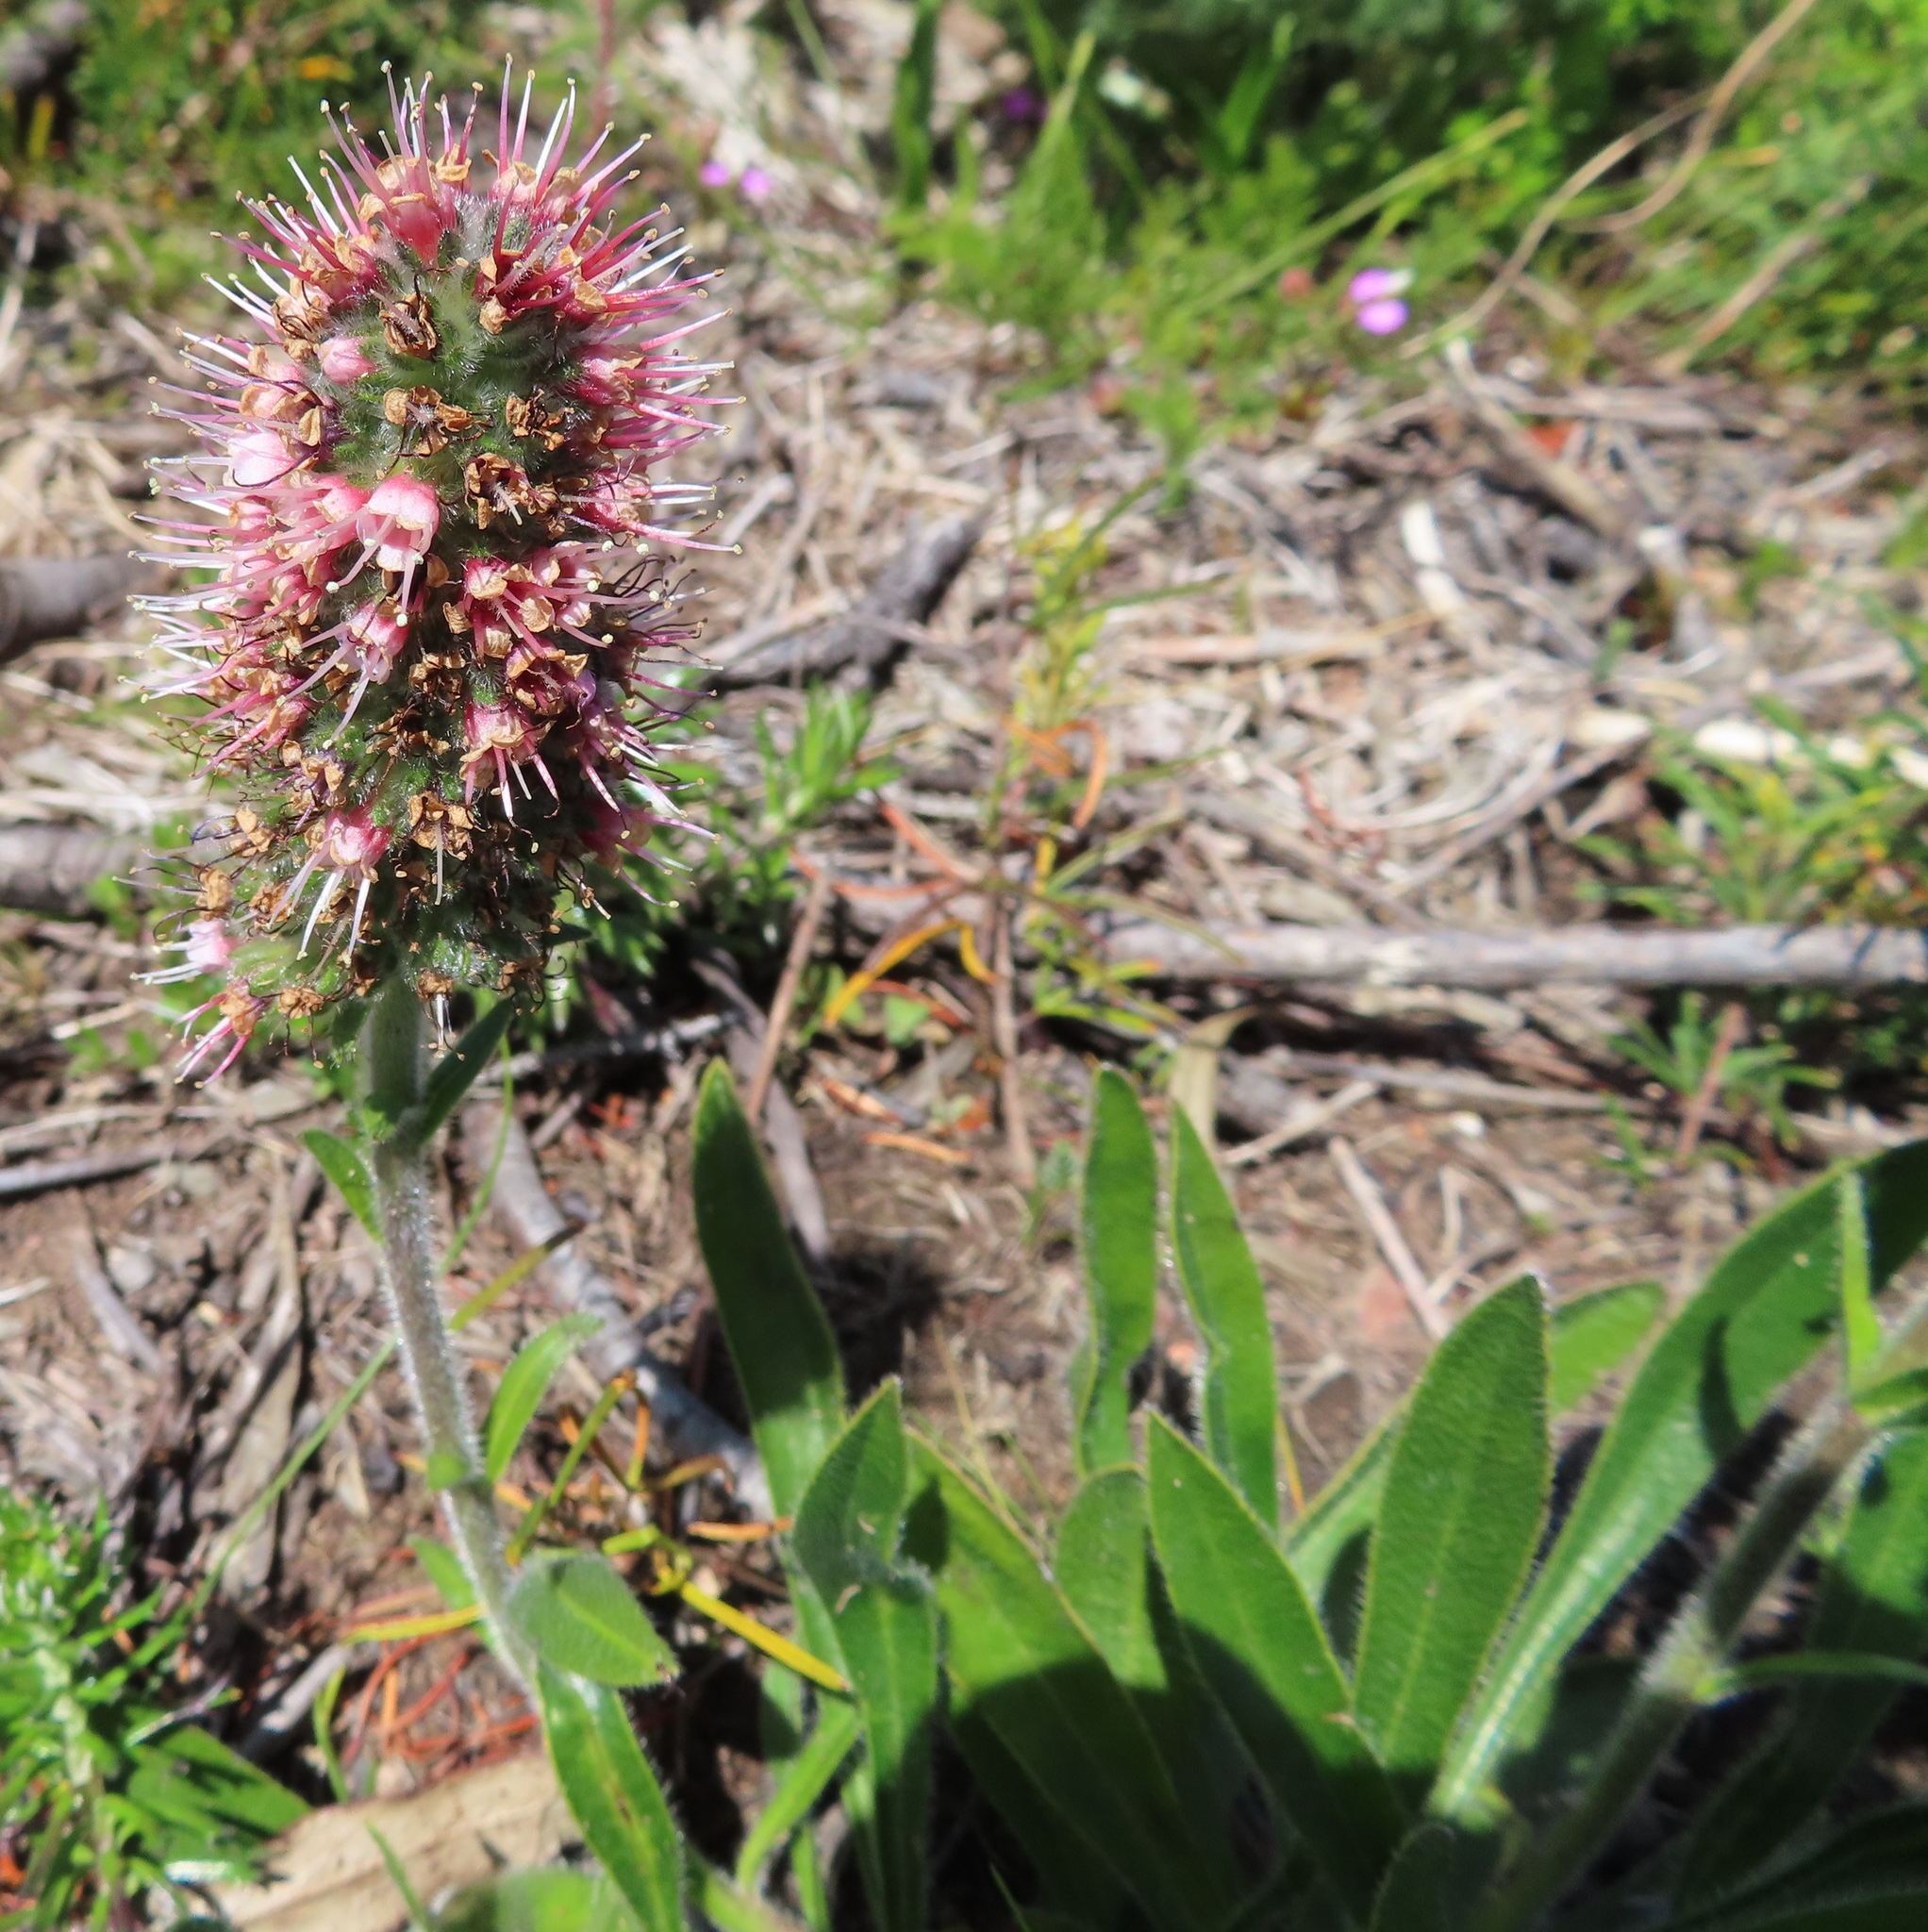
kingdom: Plantae
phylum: Tracheophyta
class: Magnoliopsida
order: Boraginales
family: Boraginaceae
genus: Lobostemon
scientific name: Lobostemon ecklonianus
